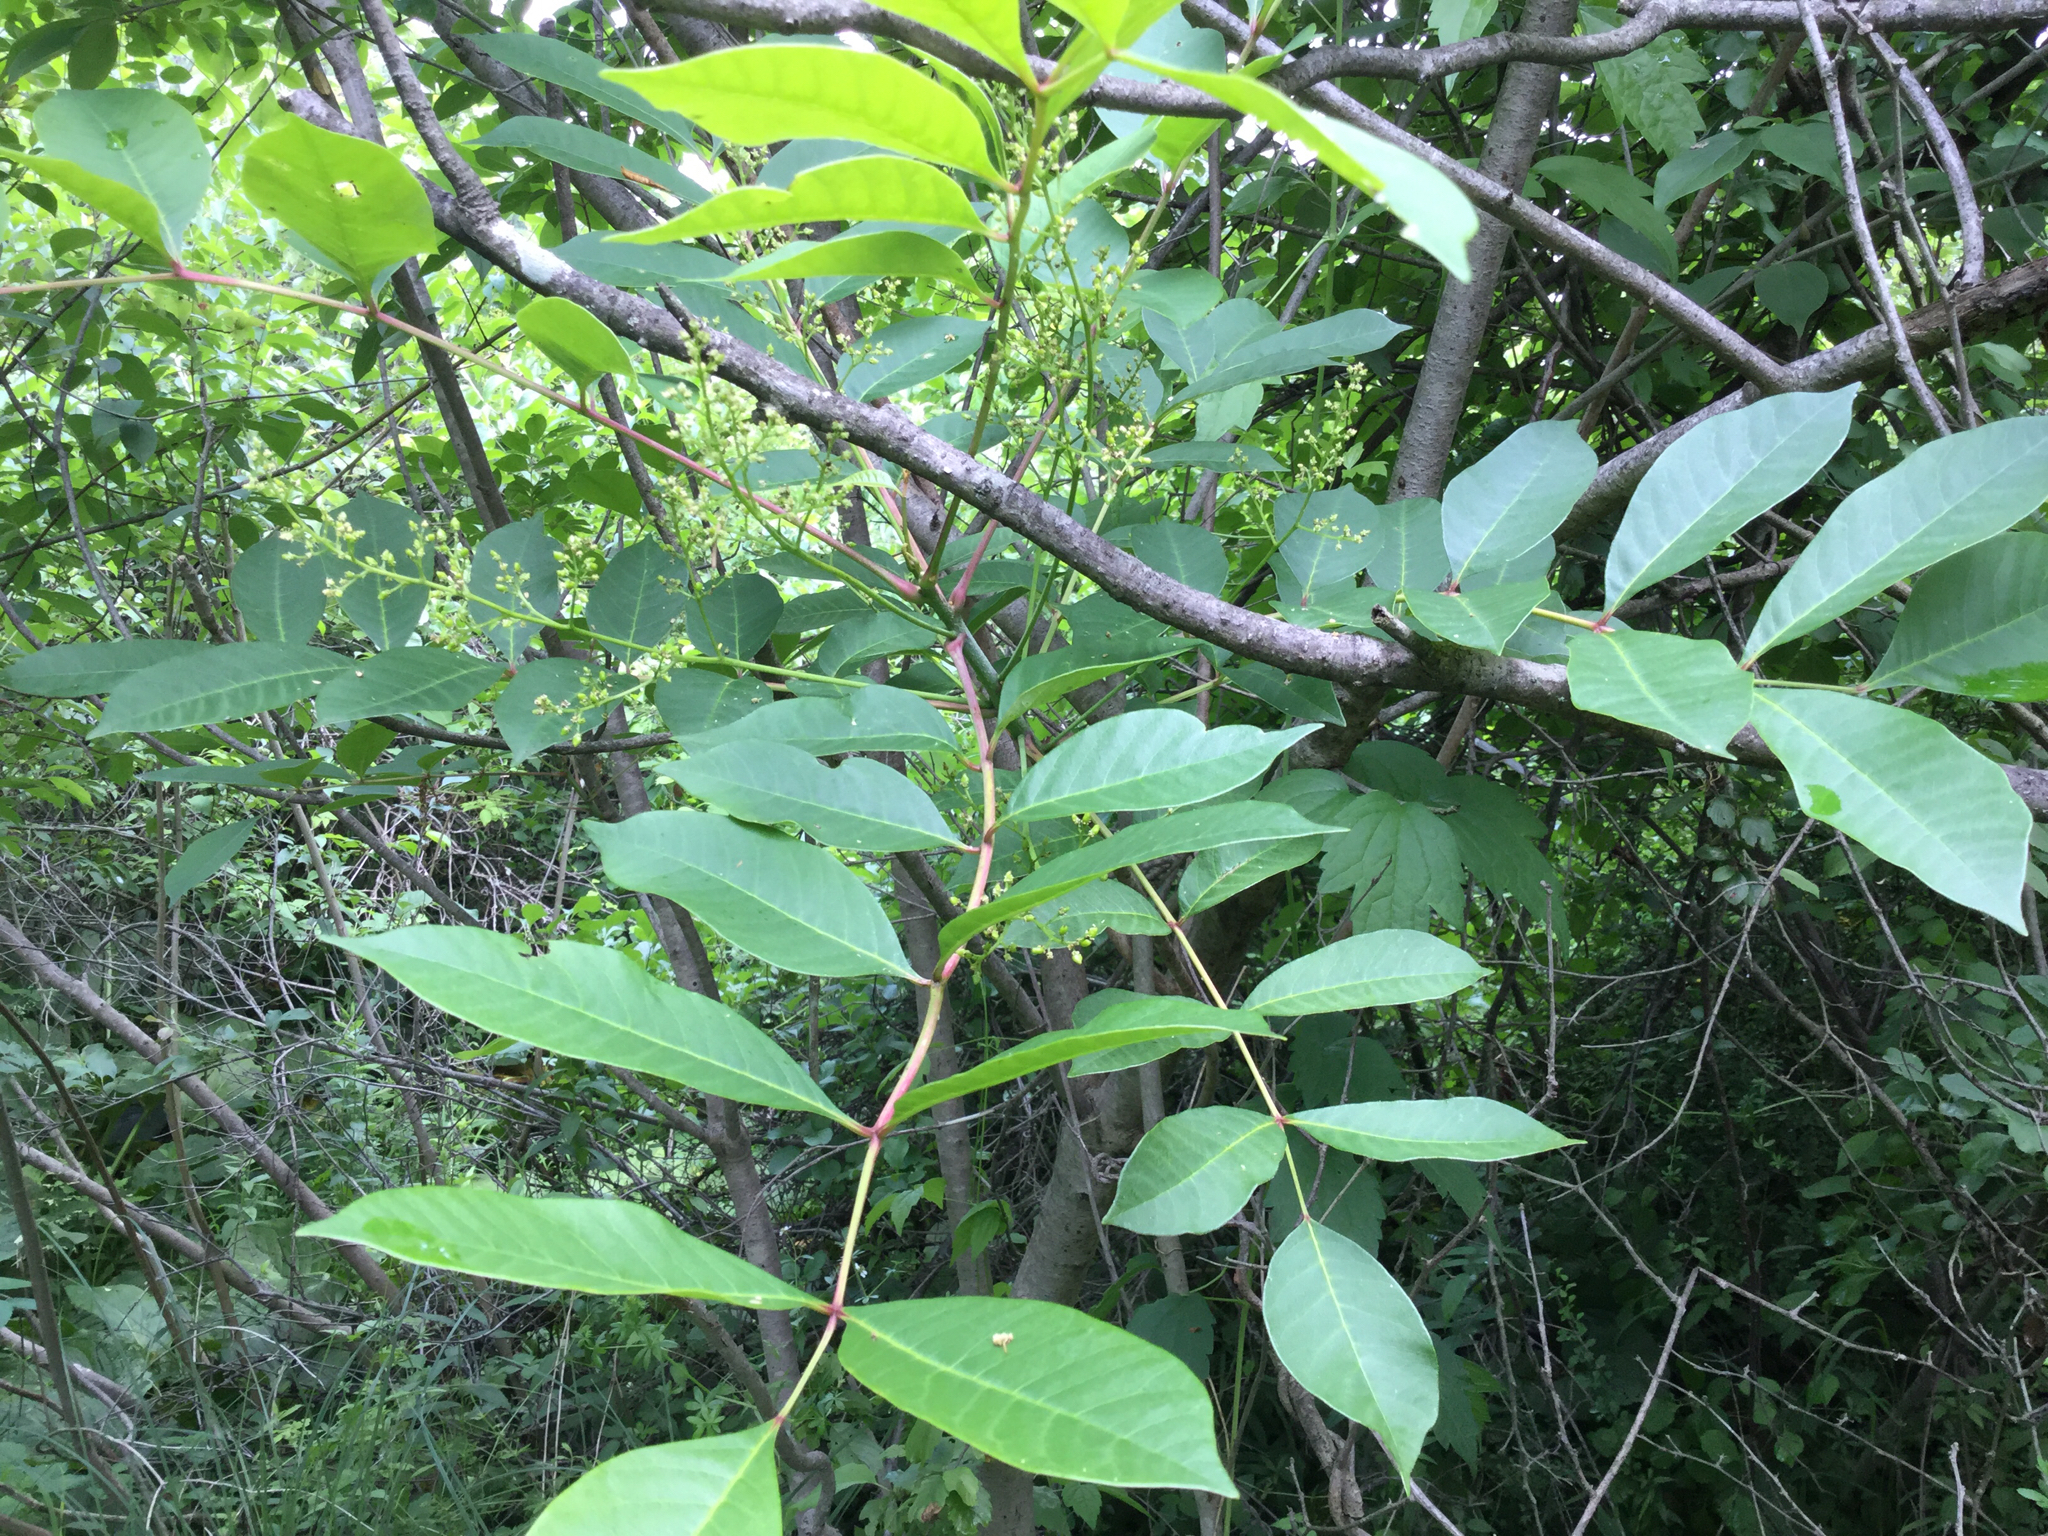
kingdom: Plantae
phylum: Tracheophyta
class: Magnoliopsida
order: Sapindales
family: Anacardiaceae
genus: Toxicodendron
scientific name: Toxicodendron vernix
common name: Poison sumac
